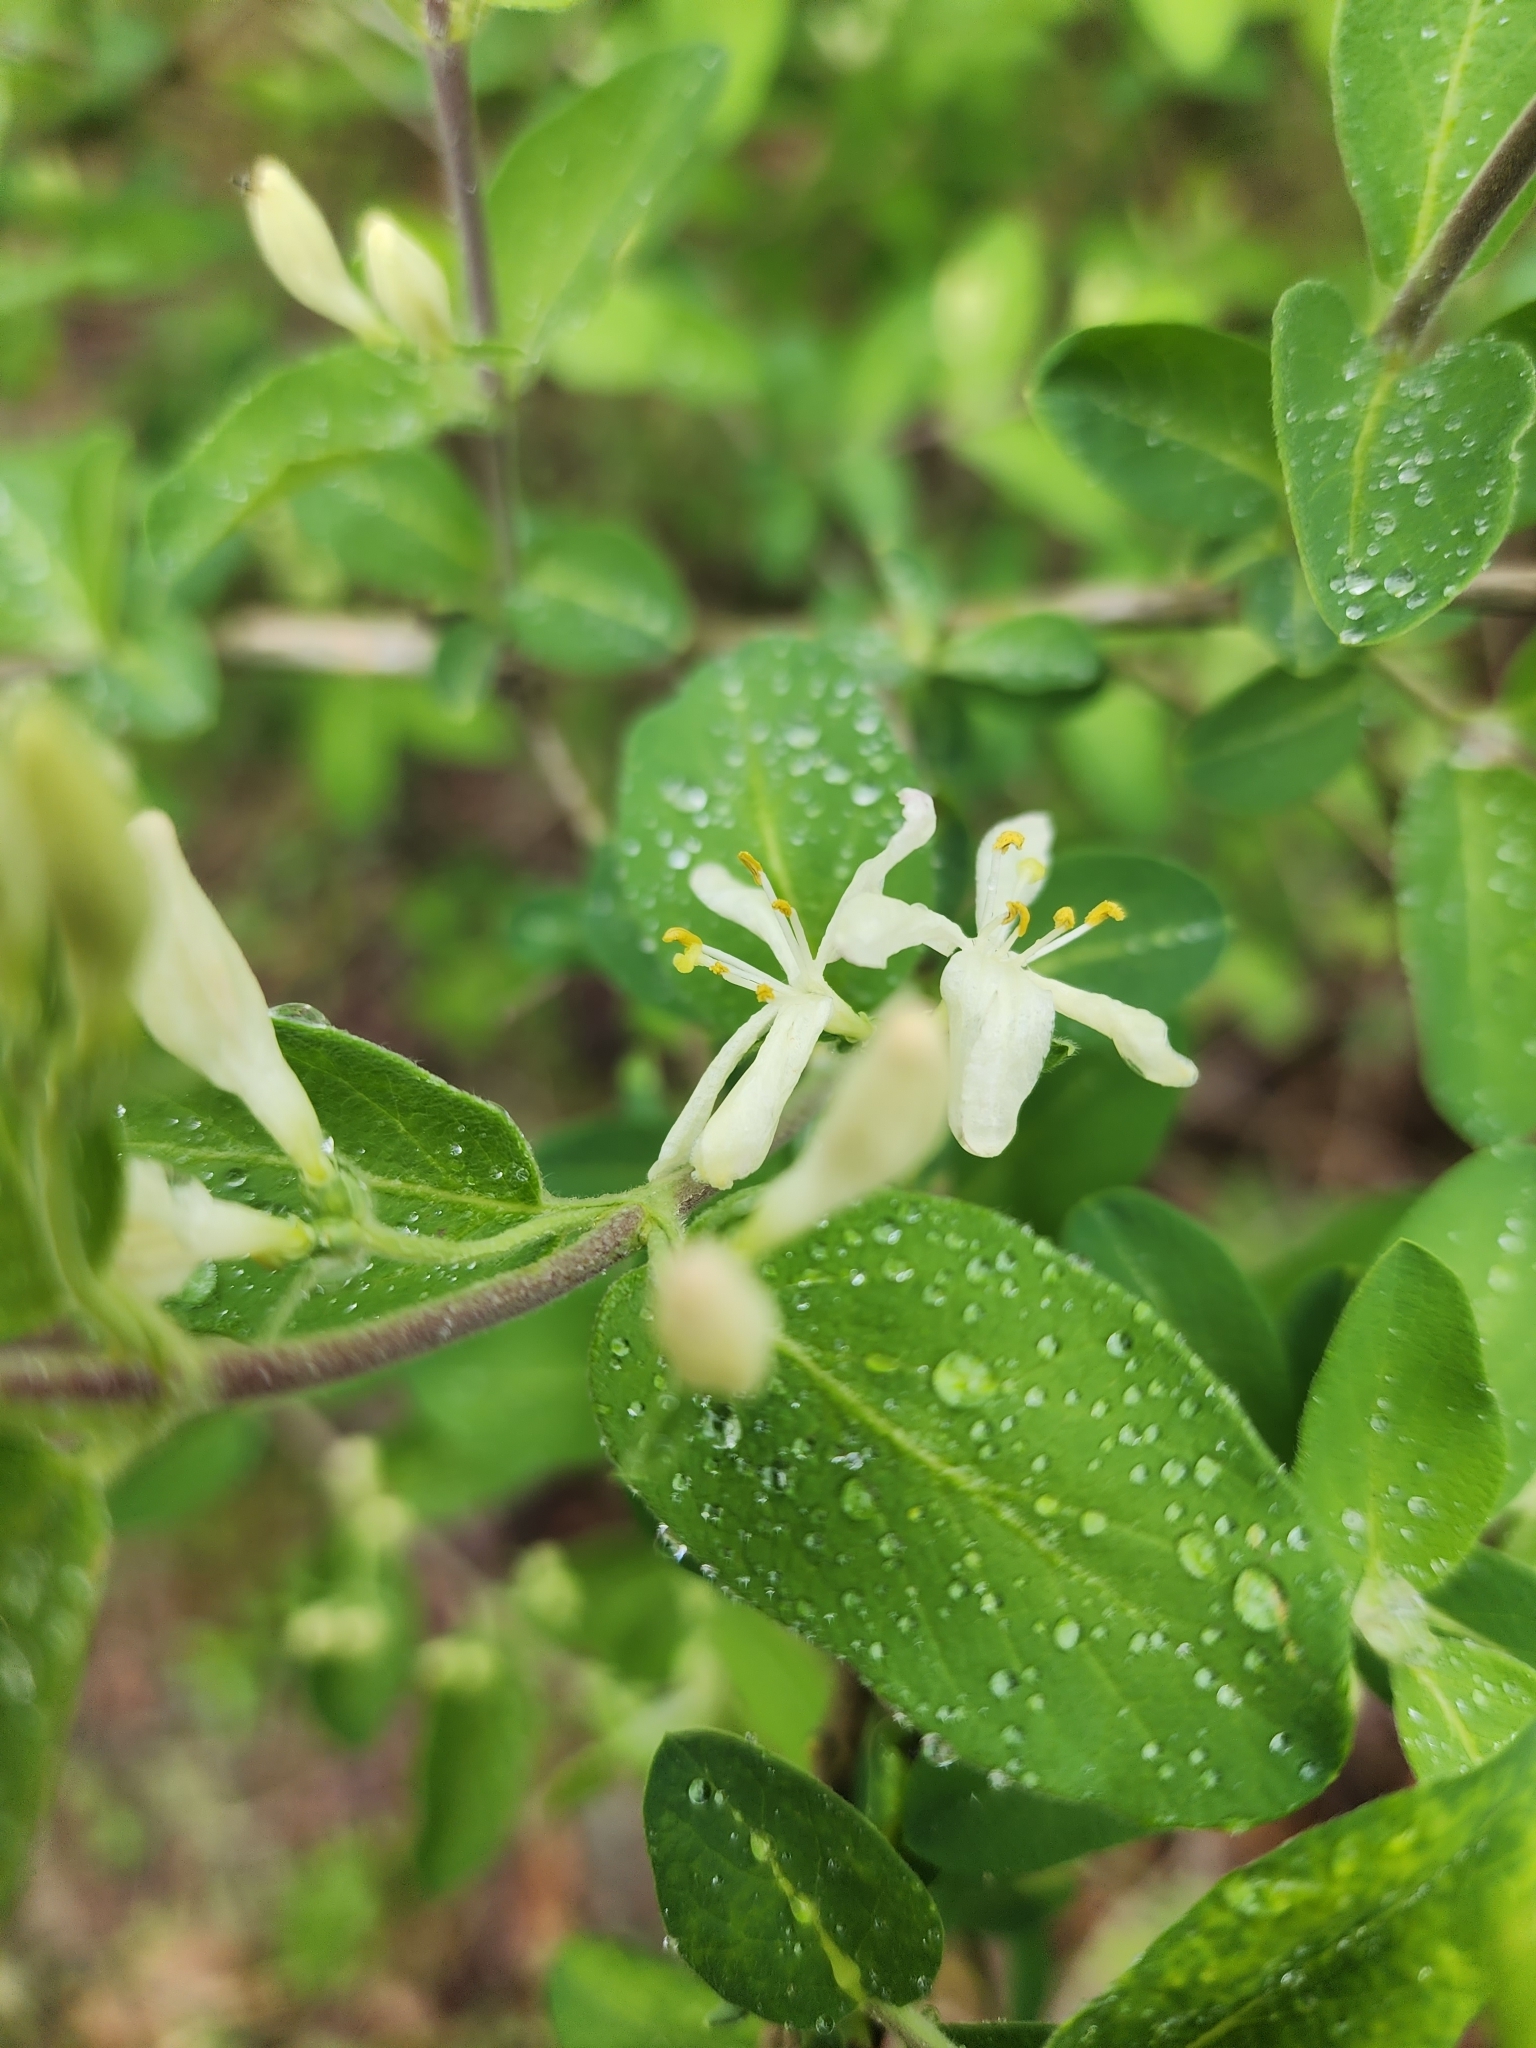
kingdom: Plantae
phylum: Tracheophyta
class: Magnoliopsida
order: Dipsacales
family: Caprifoliaceae
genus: Lonicera
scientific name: Lonicera morrowii
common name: Morrow's honeysuckle
